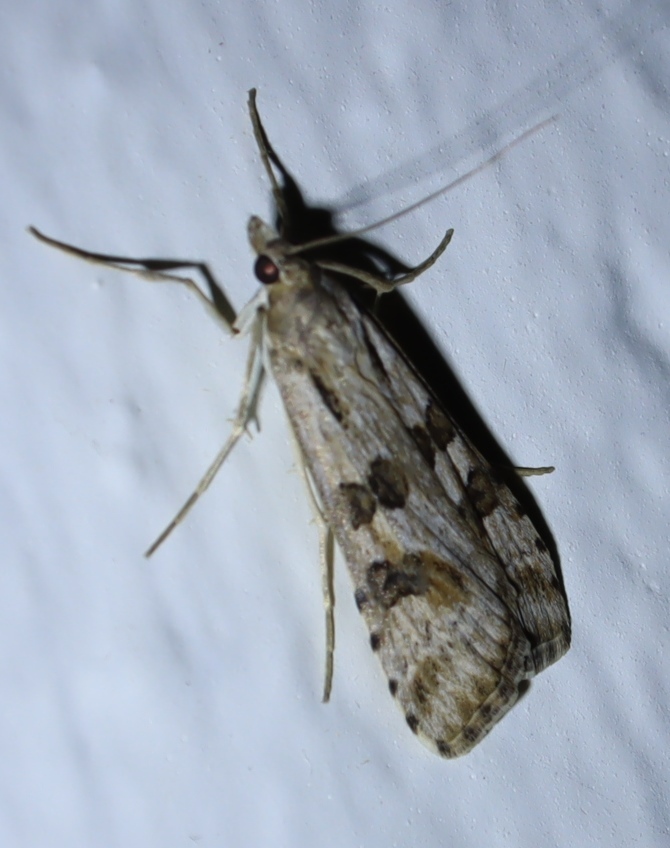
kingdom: Animalia
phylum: Arthropoda
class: Insecta
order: Lepidoptera
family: Crambidae
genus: Nomophila
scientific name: Nomophila noctuella
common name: Rush veneer
